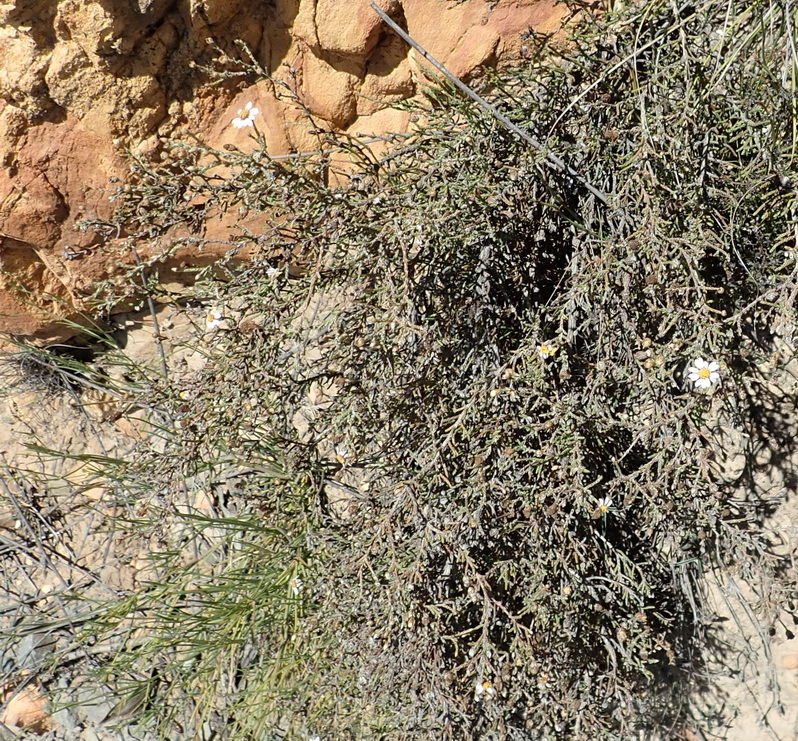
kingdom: Plantae
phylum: Tracheophyta
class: Magnoliopsida
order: Asterales
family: Asteraceae
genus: Phymaspermum
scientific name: Phymaspermum appressum
